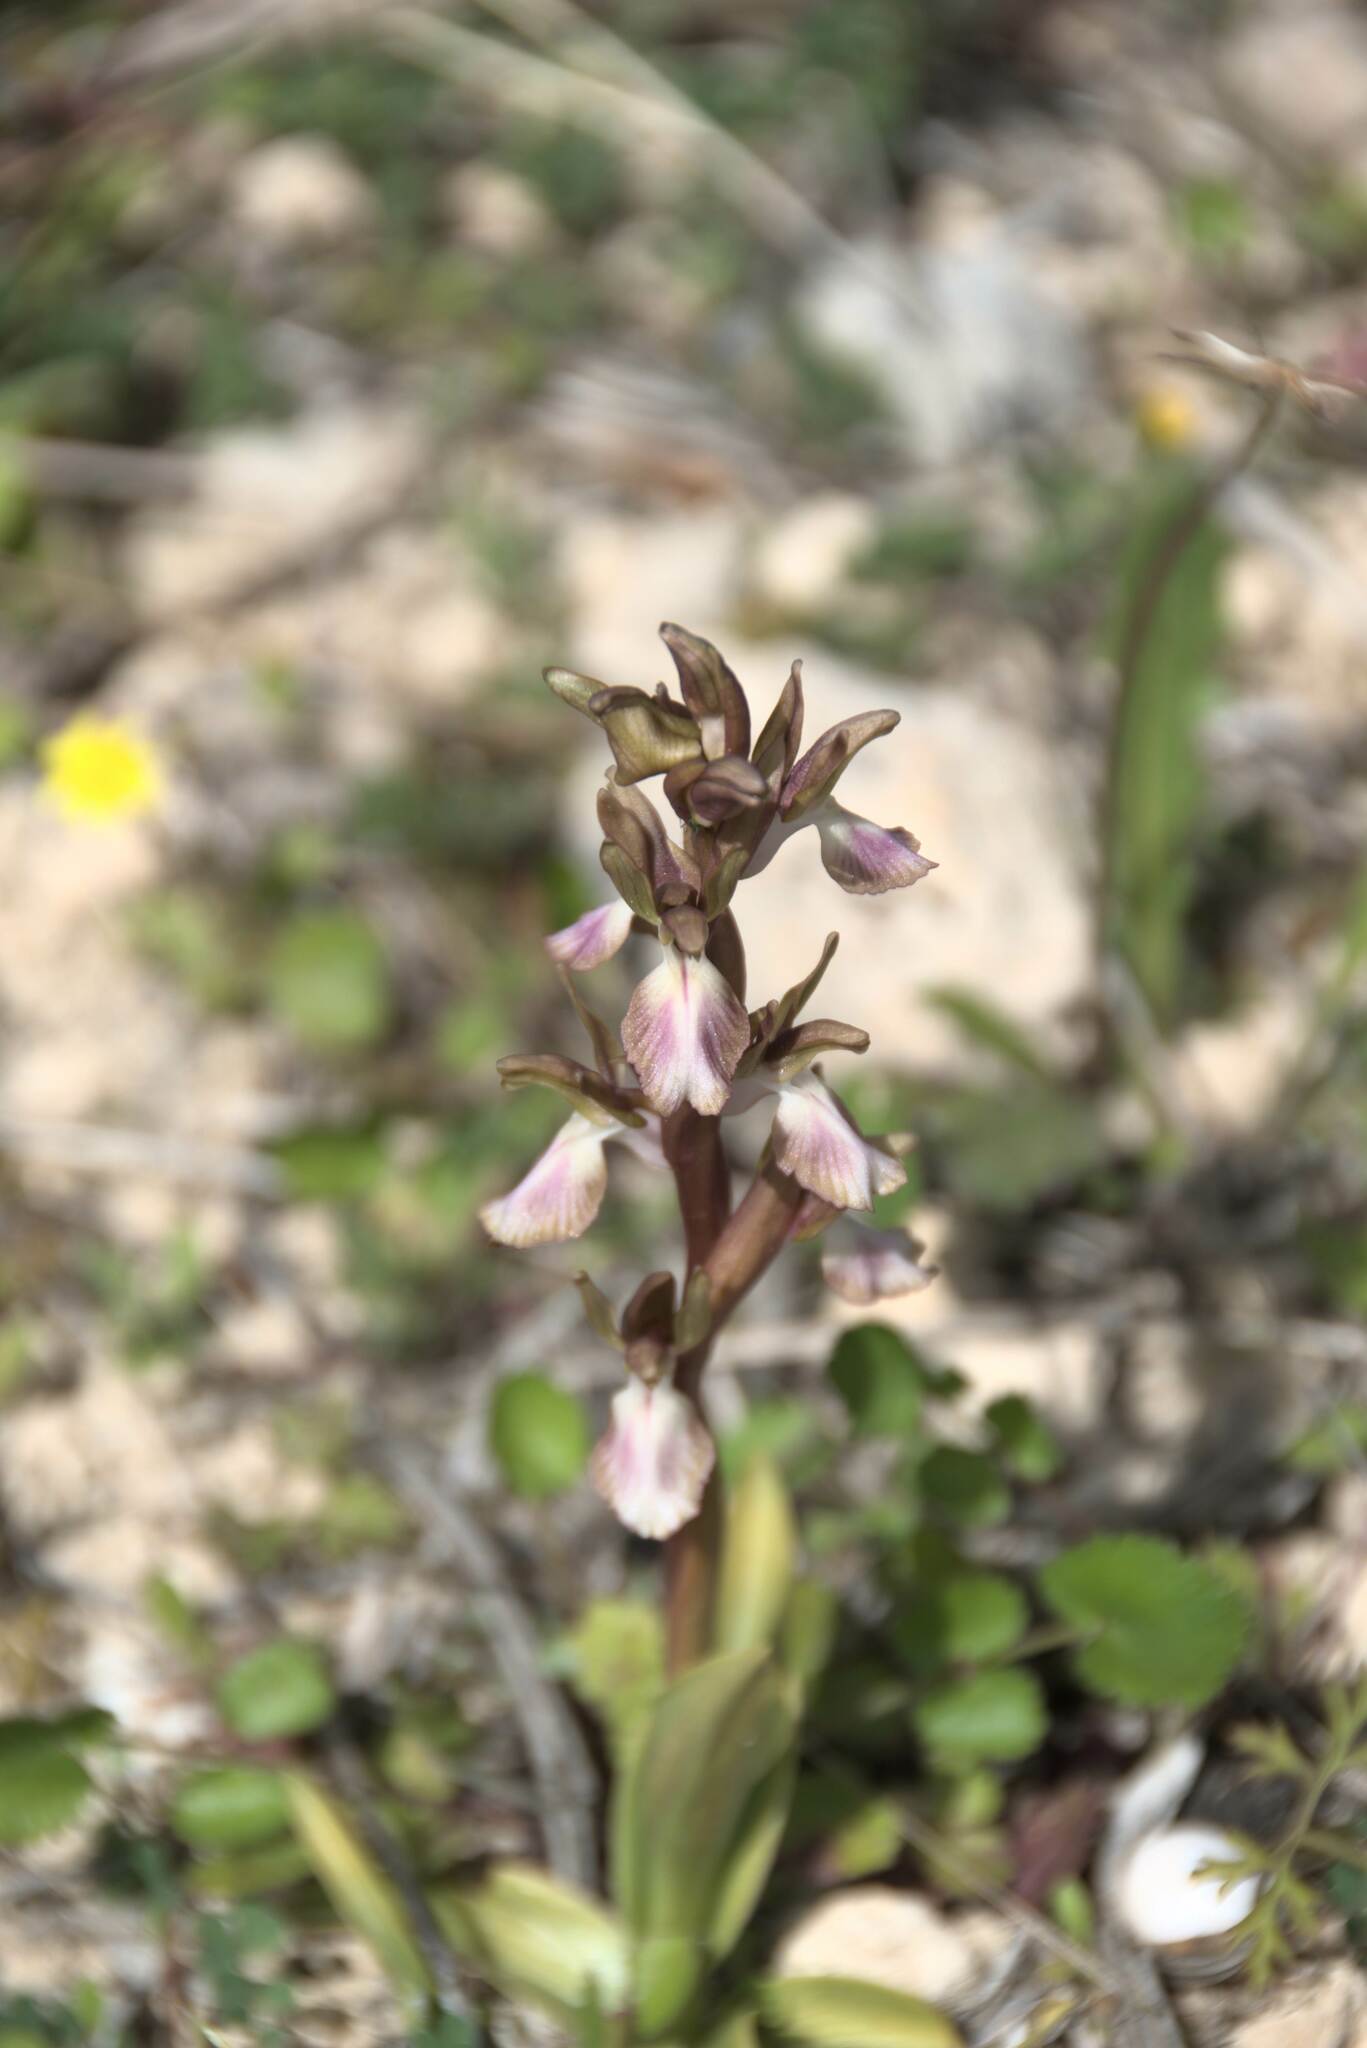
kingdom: Plantae
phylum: Tracheophyta
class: Liliopsida
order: Asparagales
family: Orchidaceae
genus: Anacamptis
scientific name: Anacamptis collina
